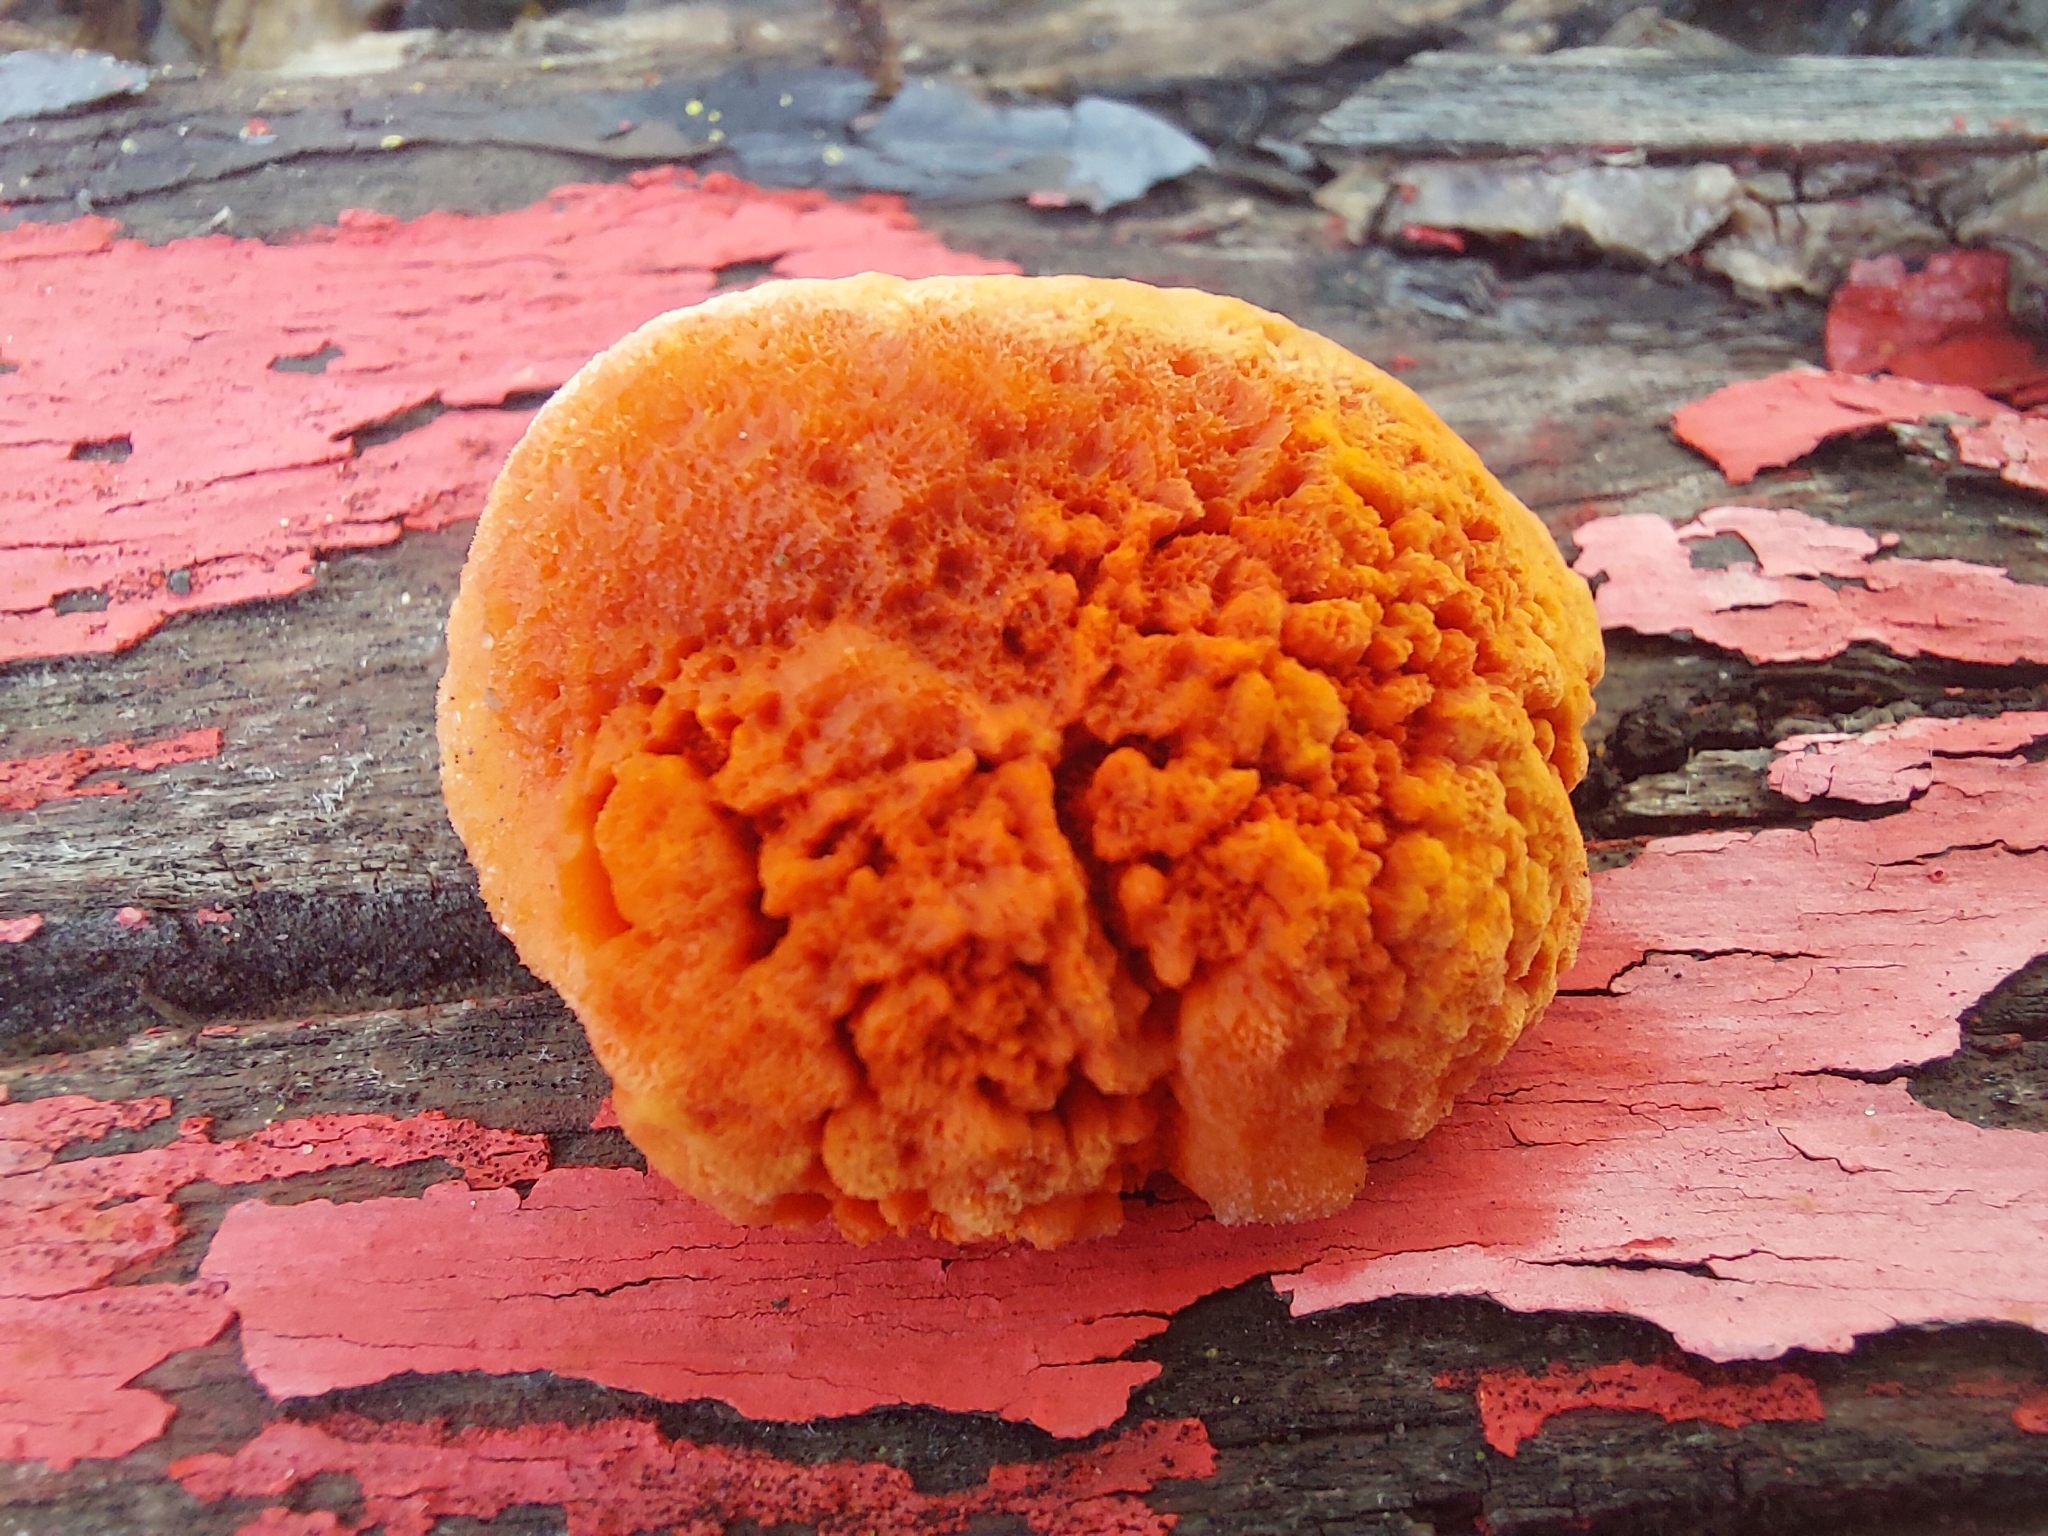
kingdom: Fungi
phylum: Basidiomycota
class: Agaricomycetes
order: Polyporales
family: Polyporaceae
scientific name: Polyporaceae
